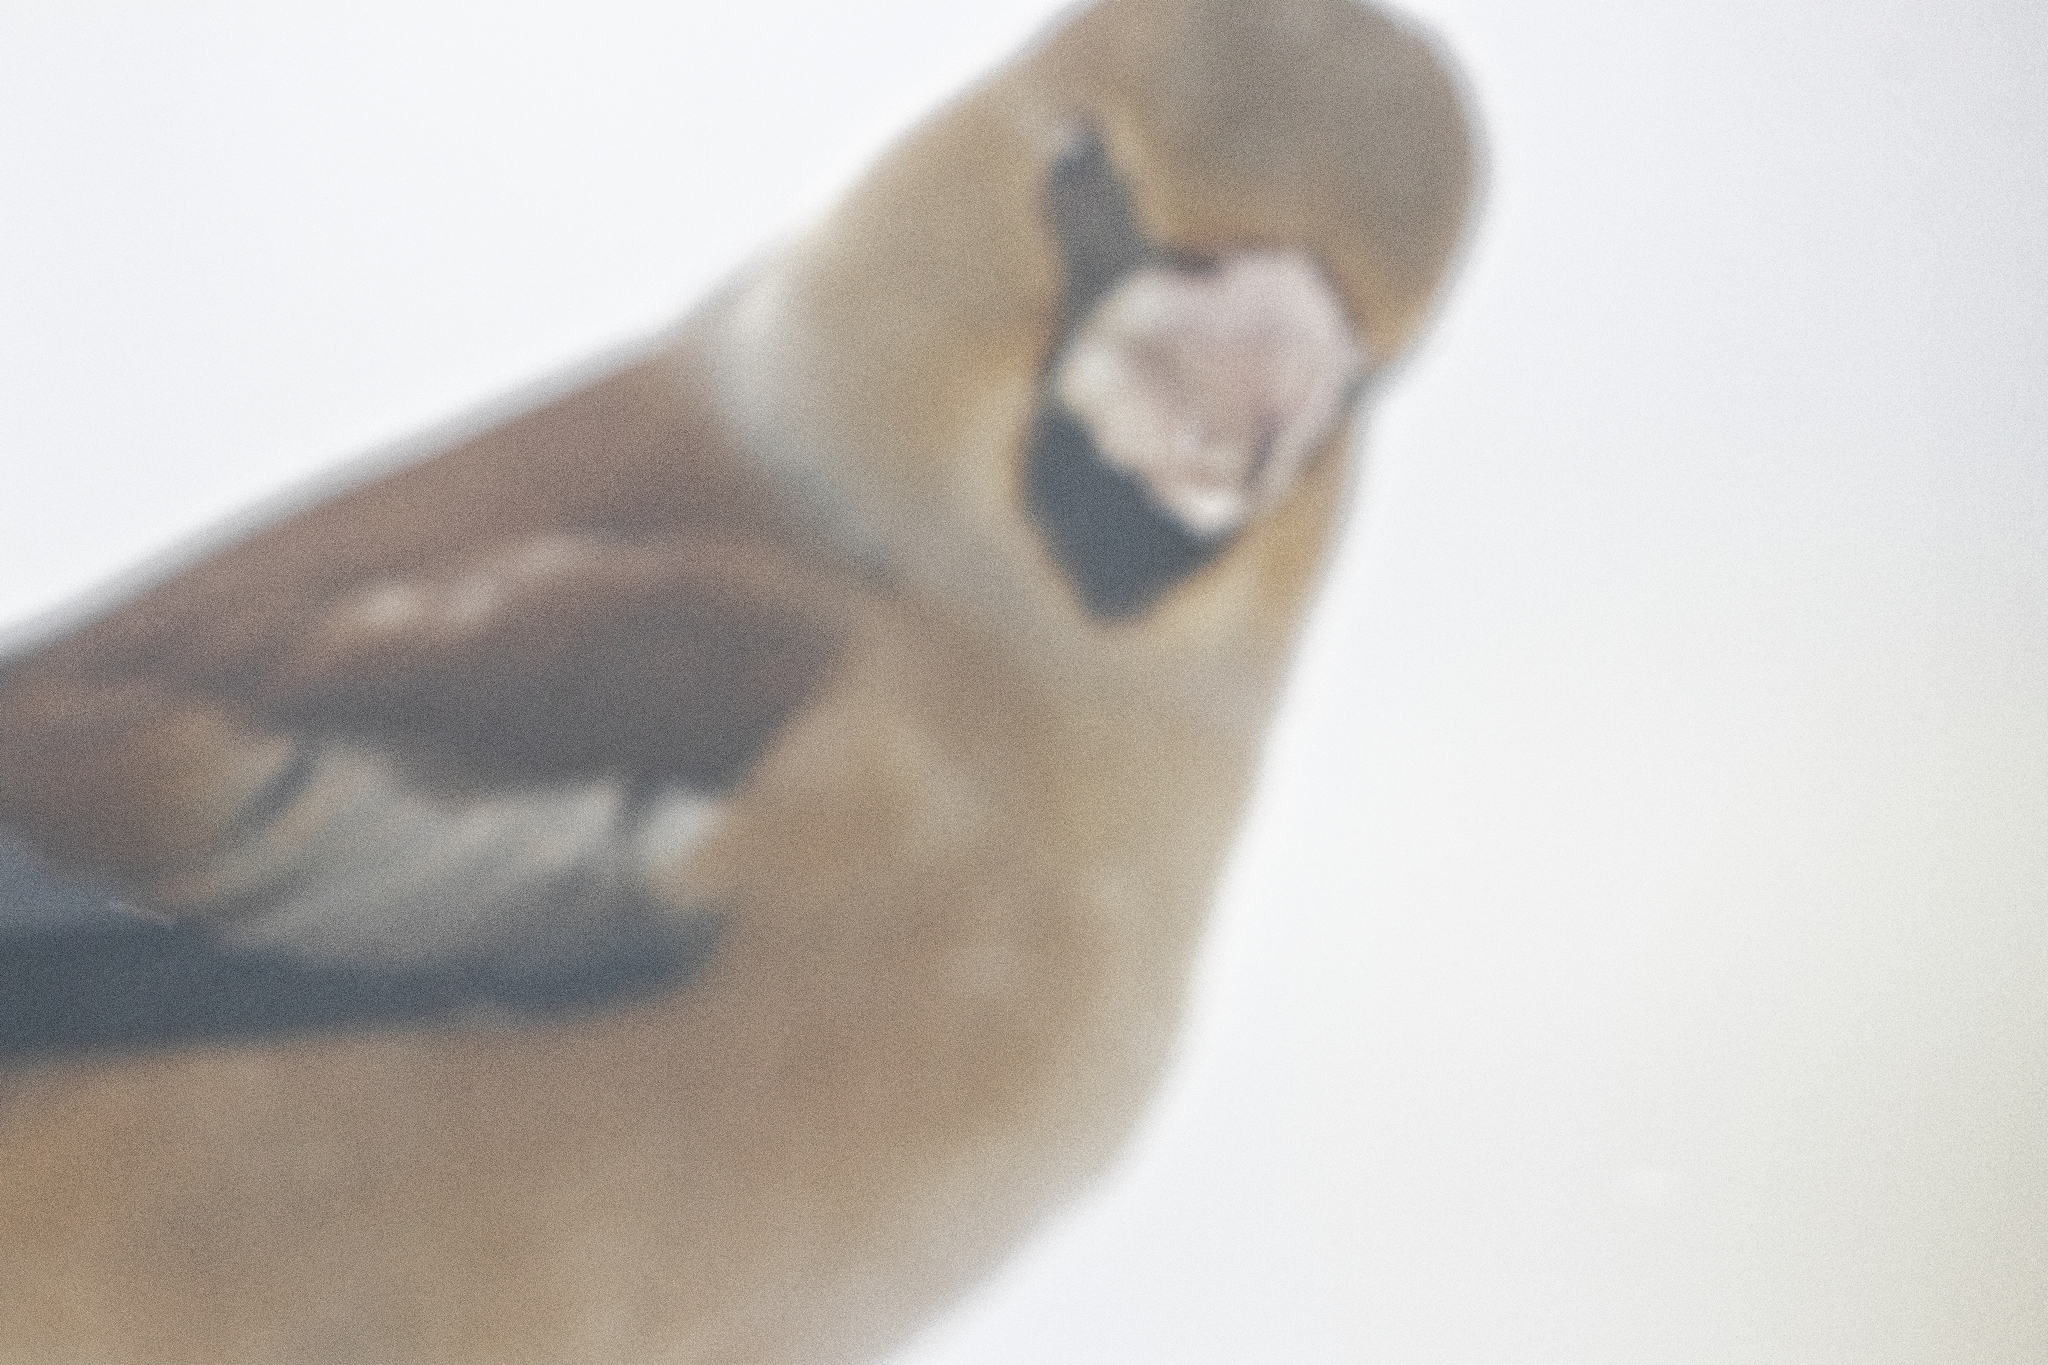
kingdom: Animalia
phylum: Chordata
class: Aves
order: Passeriformes
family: Fringillidae
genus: Coccothraustes
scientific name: Coccothraustes coccothraustes
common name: Hawfinch
